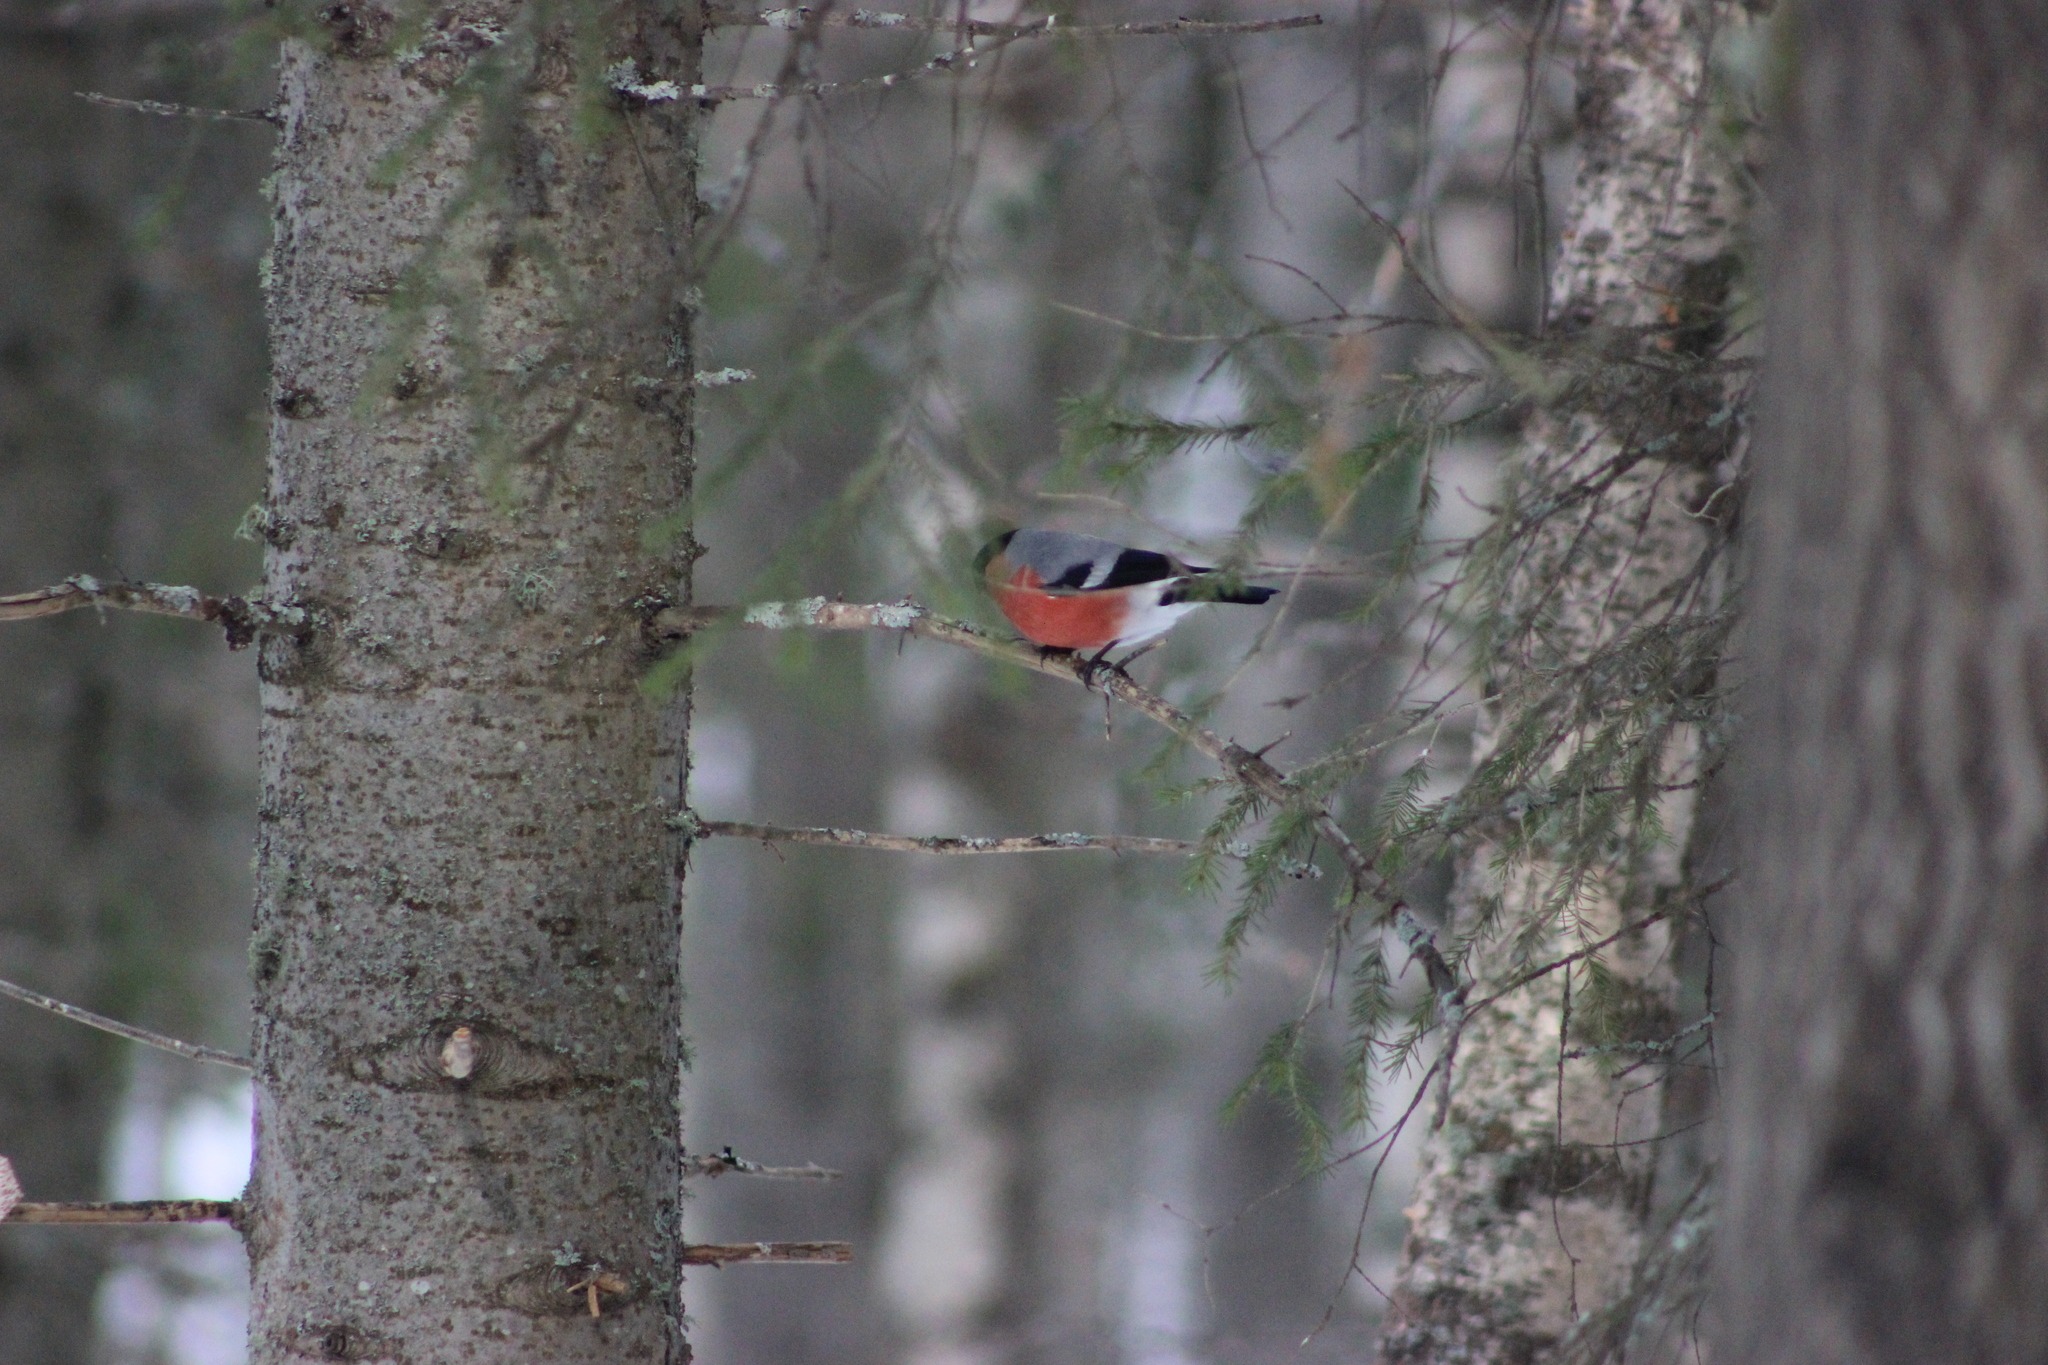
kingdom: Animalia
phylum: Chordata
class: Aves
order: Passeriformes
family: Fringillidae
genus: Pyrrhula
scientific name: Pyrrhula pyrrhula
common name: Eurasian bullfinch
